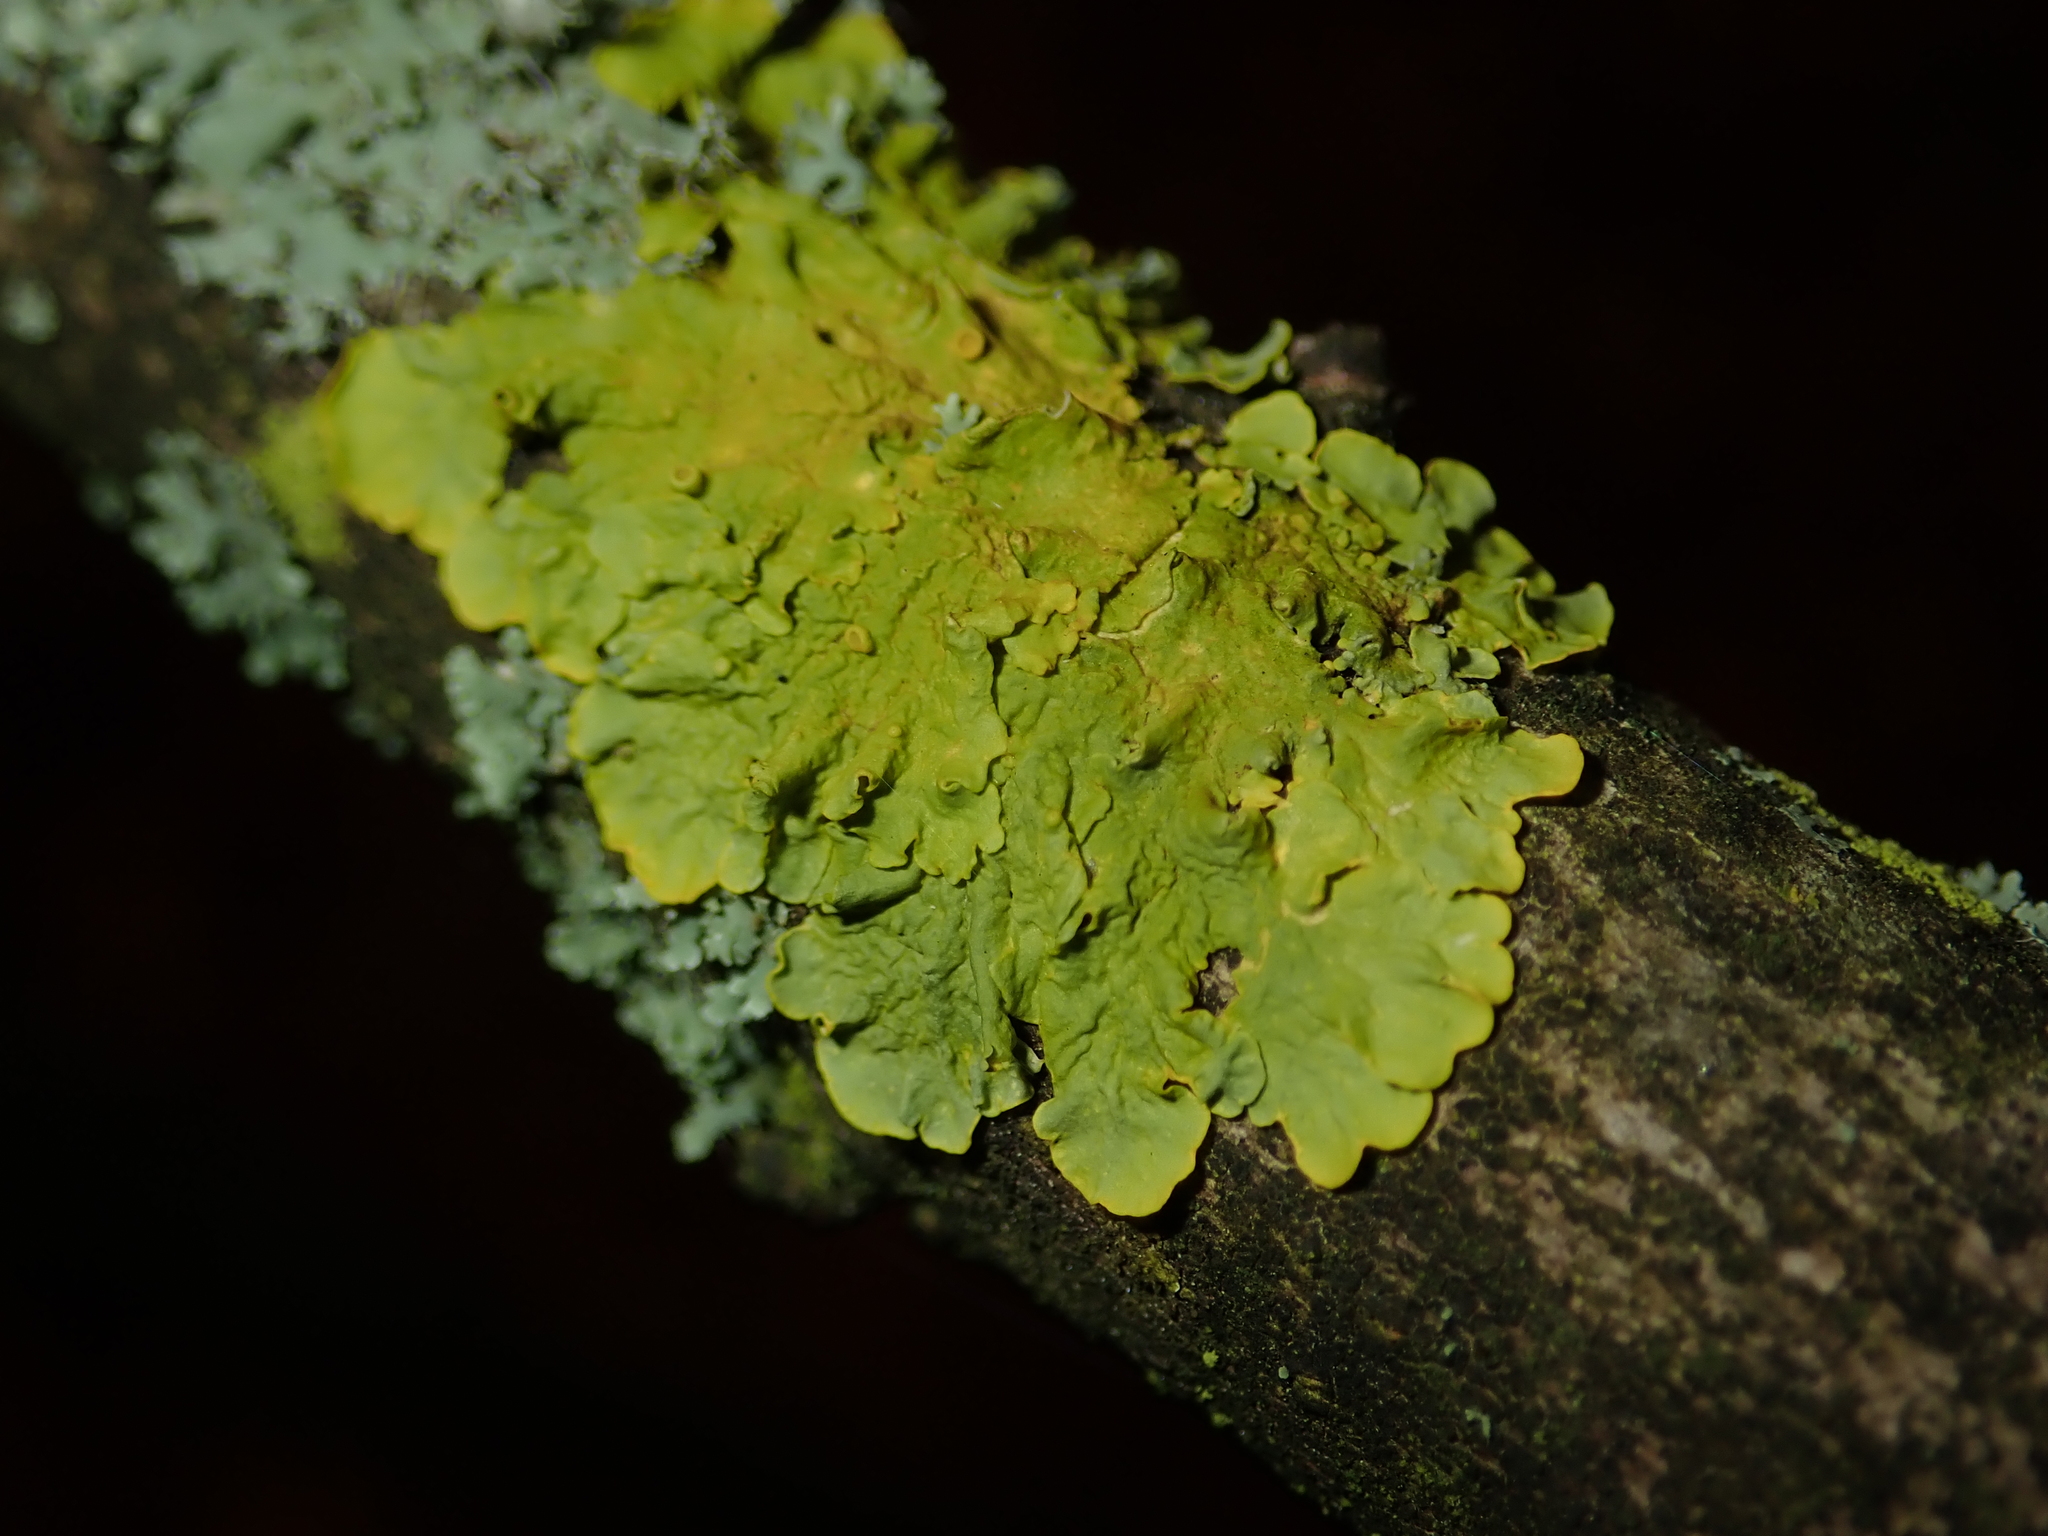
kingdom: Fungi
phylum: Ascomycota
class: Lecanoromycetes
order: Teloschistales
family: Teloschistaceae
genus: Xanthoria
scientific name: Xanthoria parietina
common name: Common orange lichen
